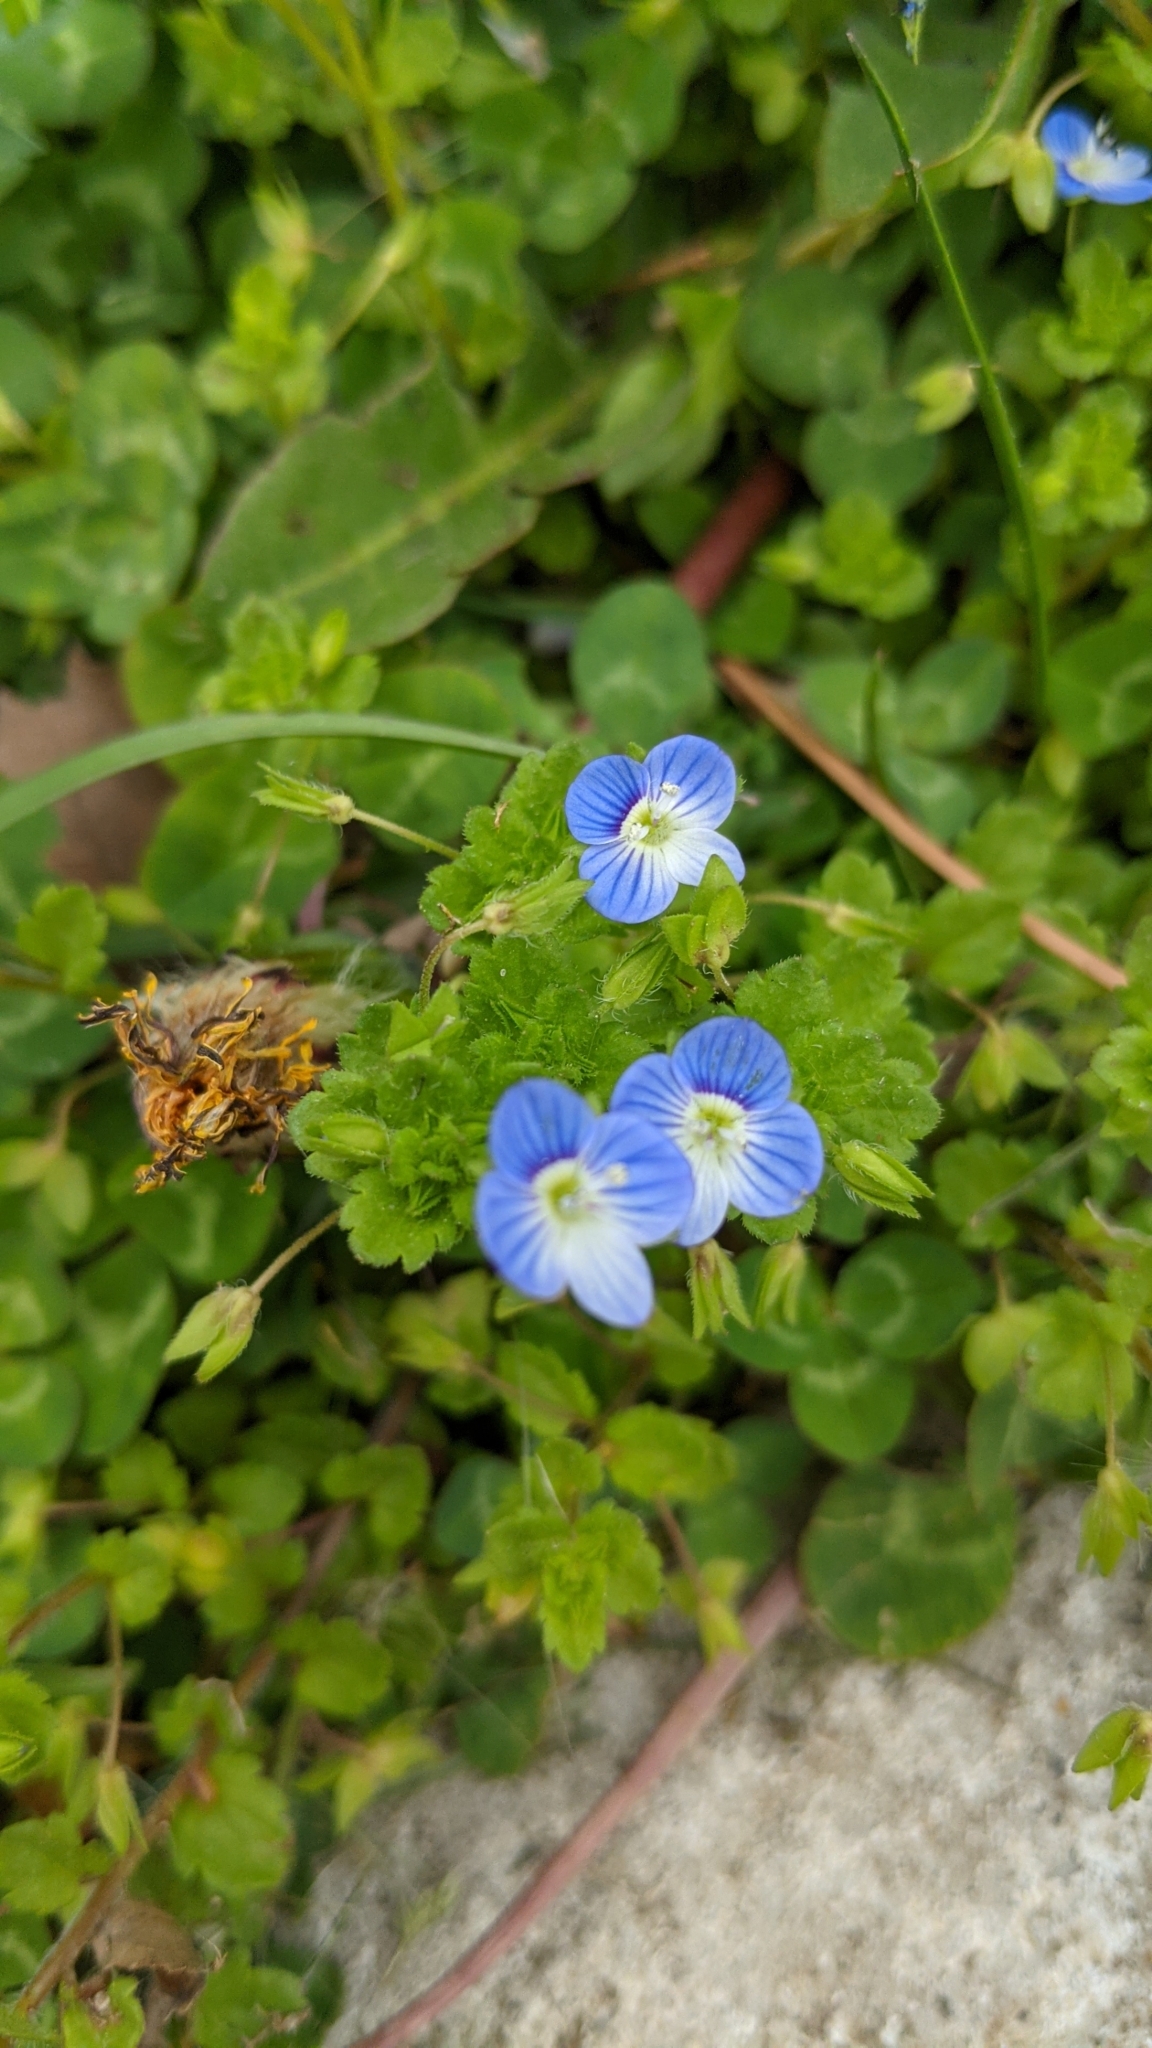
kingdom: Plantae
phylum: Tracheophyta
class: Magnoliopsida
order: Lamiales
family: Plantaginaceae
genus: Veronica
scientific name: Veronica persica
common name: Common field-speedwell
